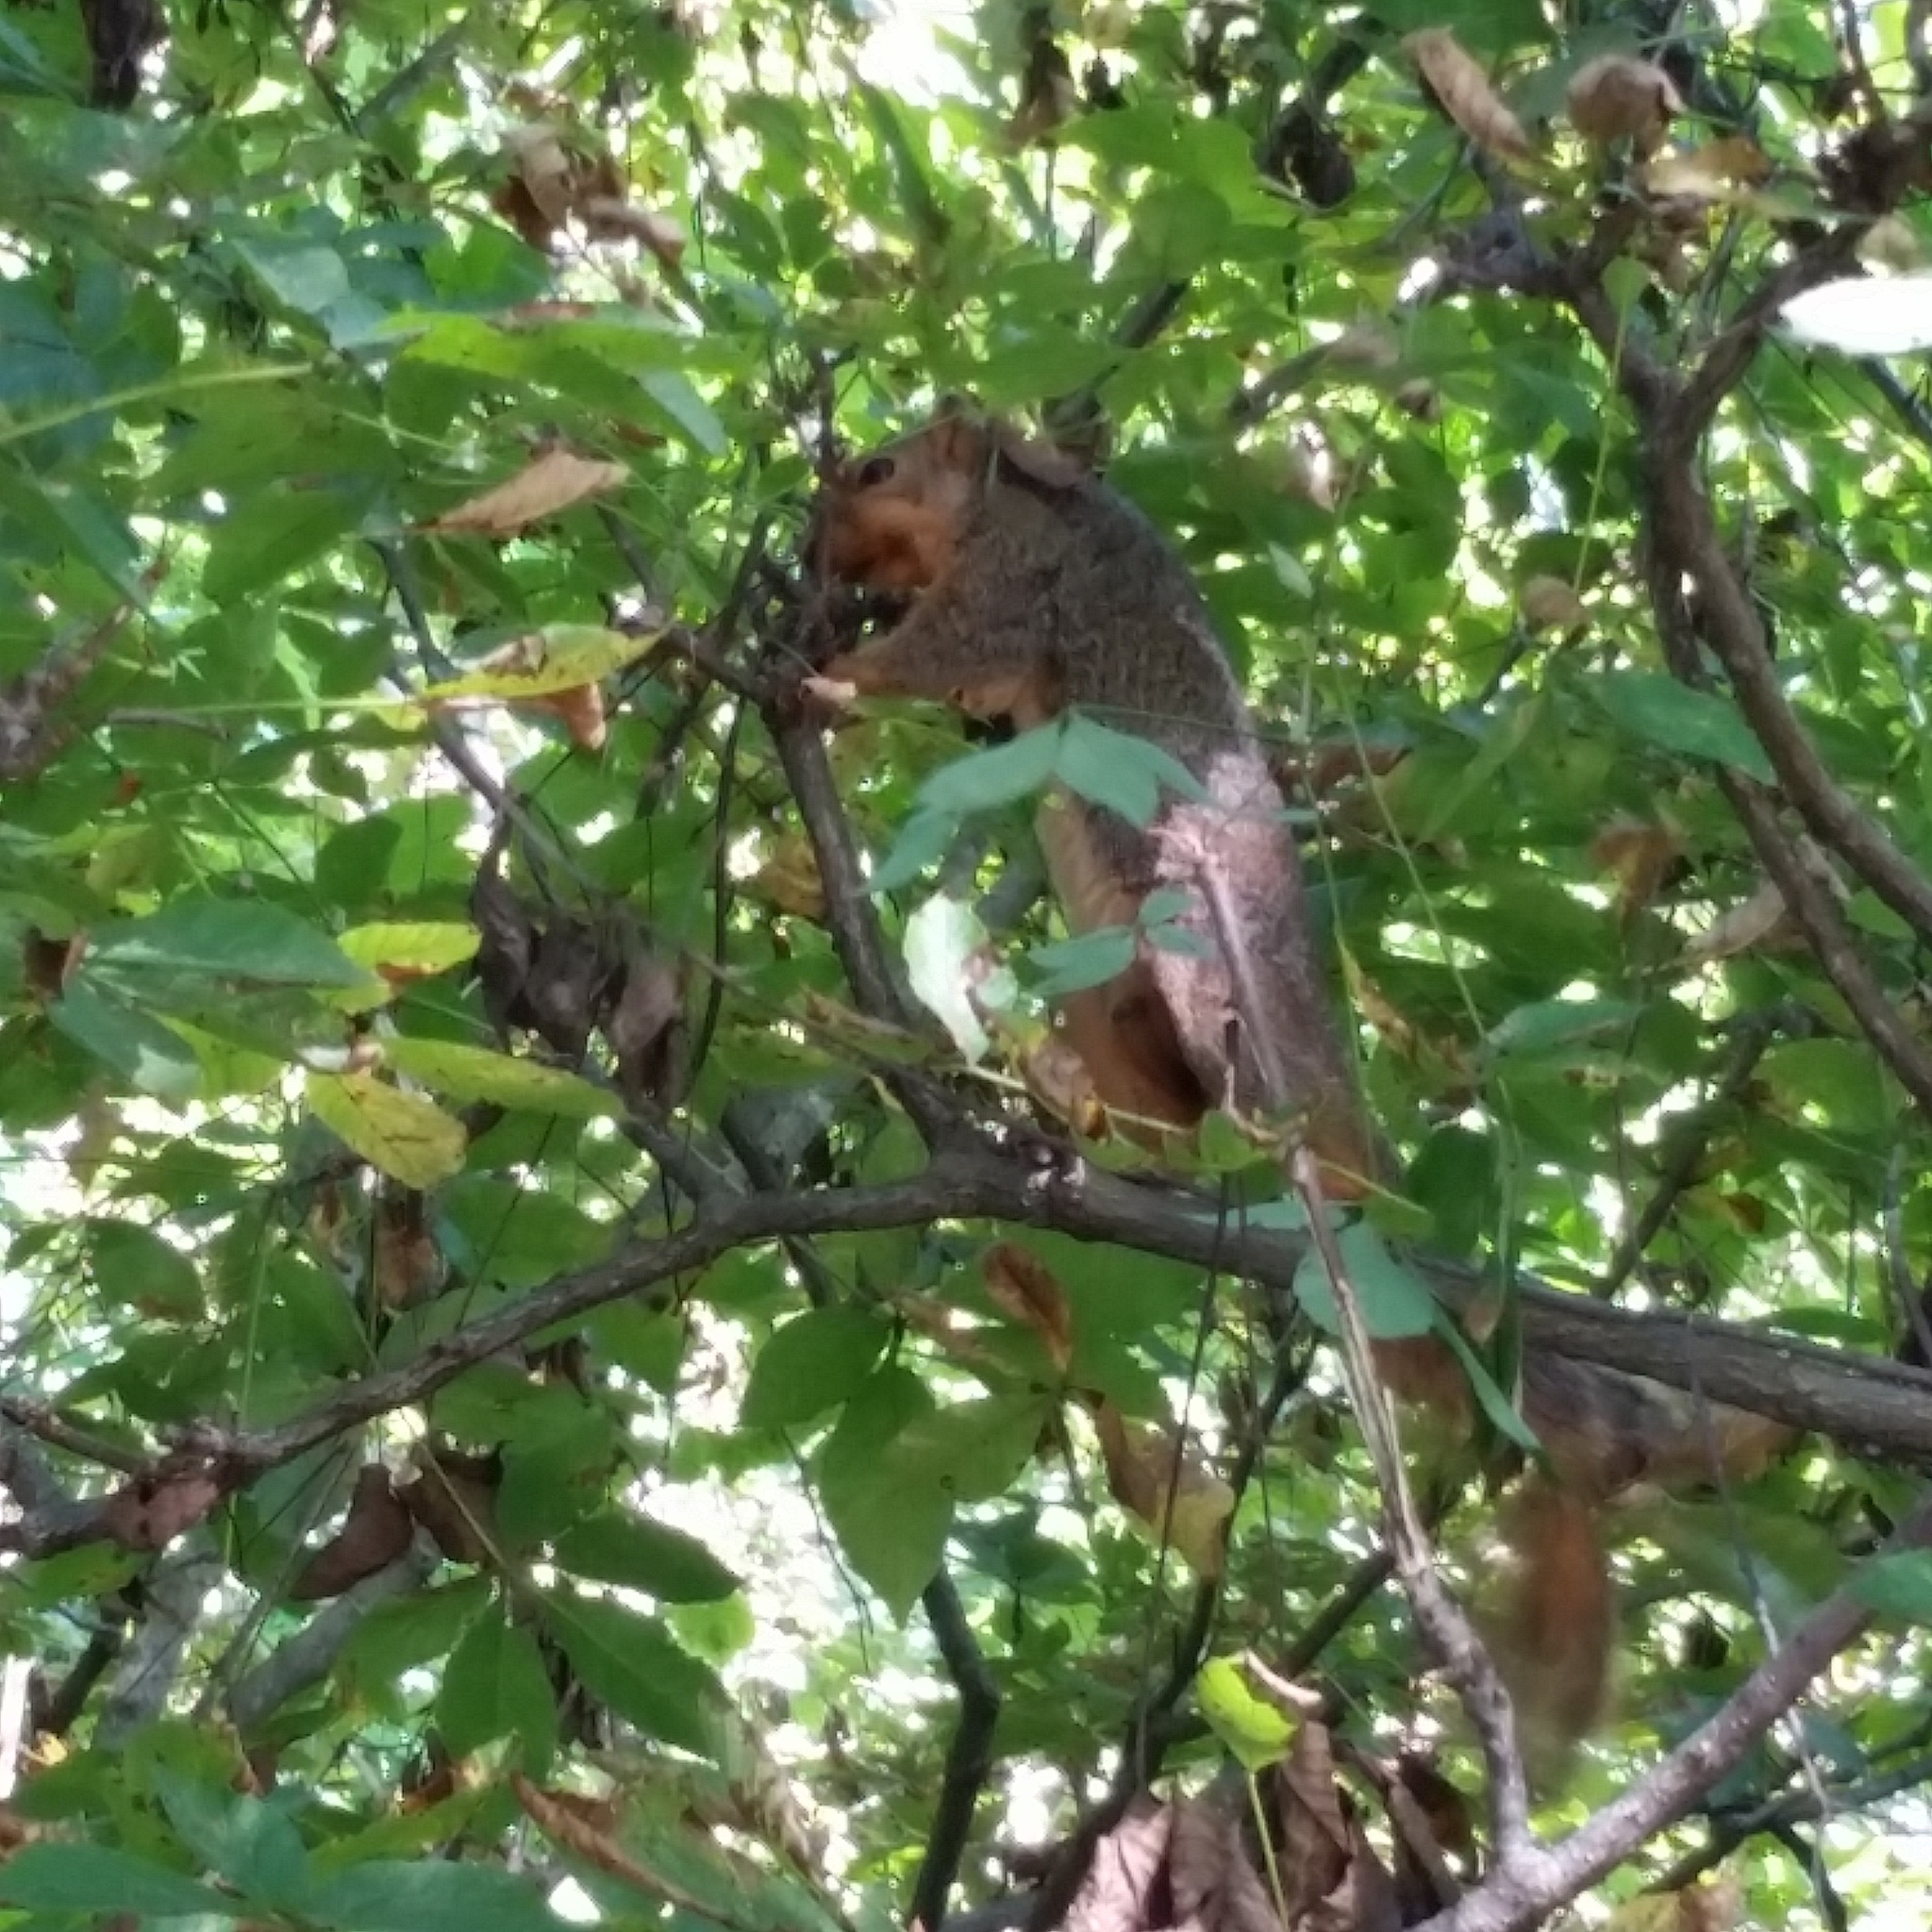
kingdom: Animalia
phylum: Chordata
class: Mammalia
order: Rodentia
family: Sciuridae
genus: Sciurus
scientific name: Sciurus niger
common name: Fox squirrel
